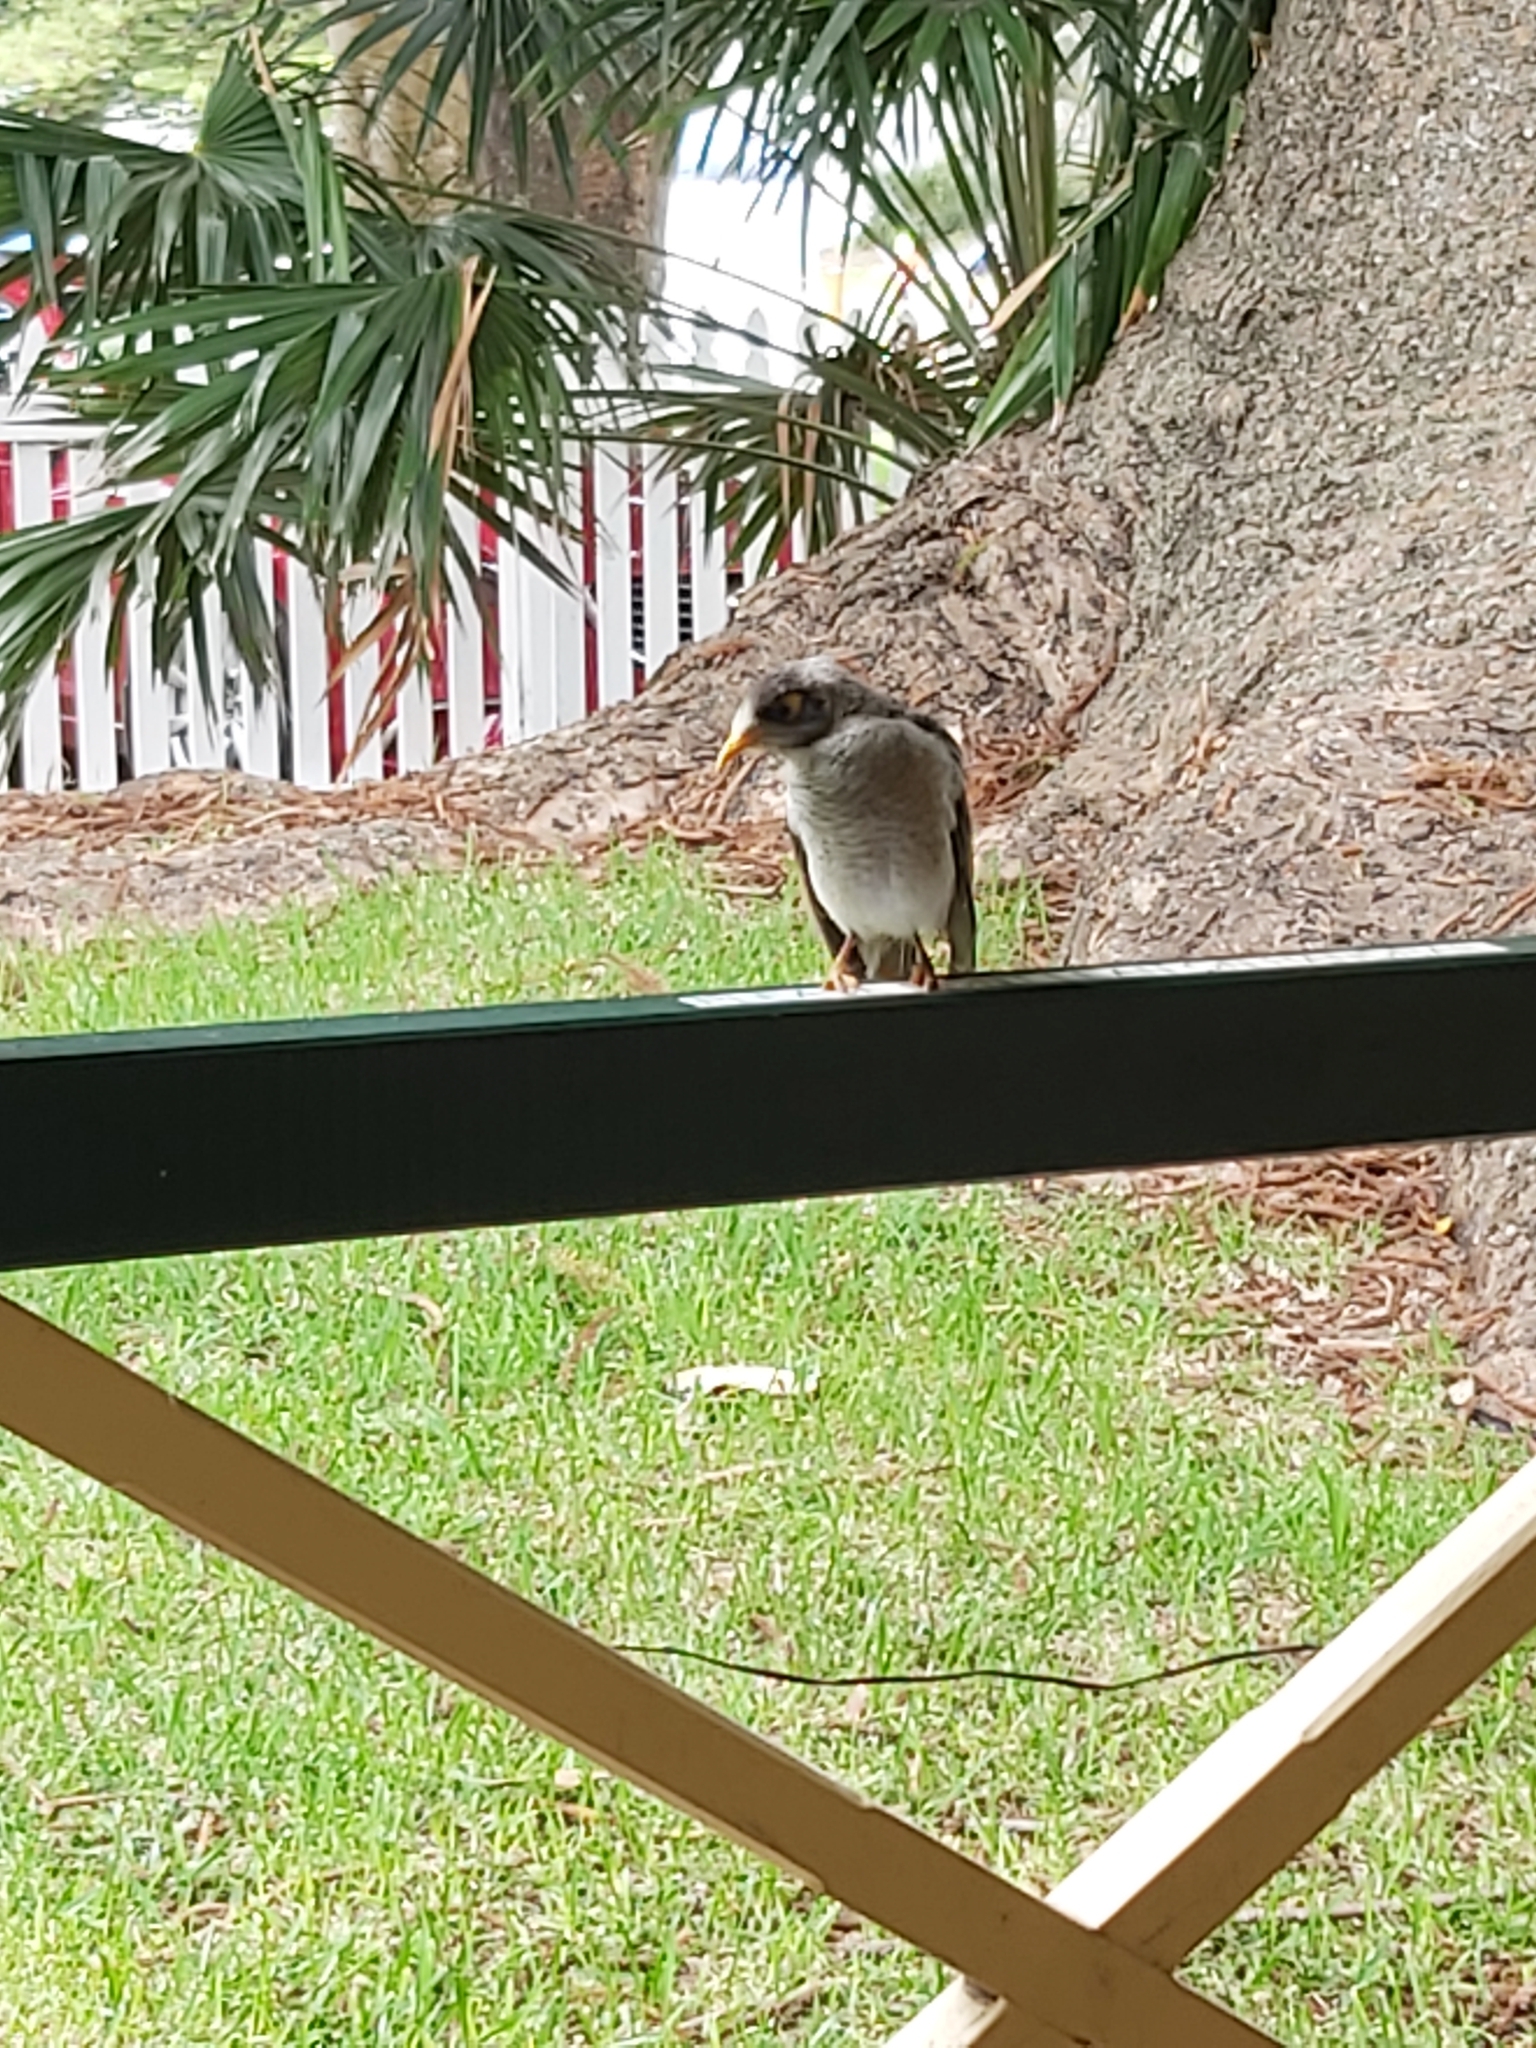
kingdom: Animalia
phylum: Chordata
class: Aves
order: Passeriformes
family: Meliphagidae
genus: Manorina
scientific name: Manorina melanocephala
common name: Noisy miner
